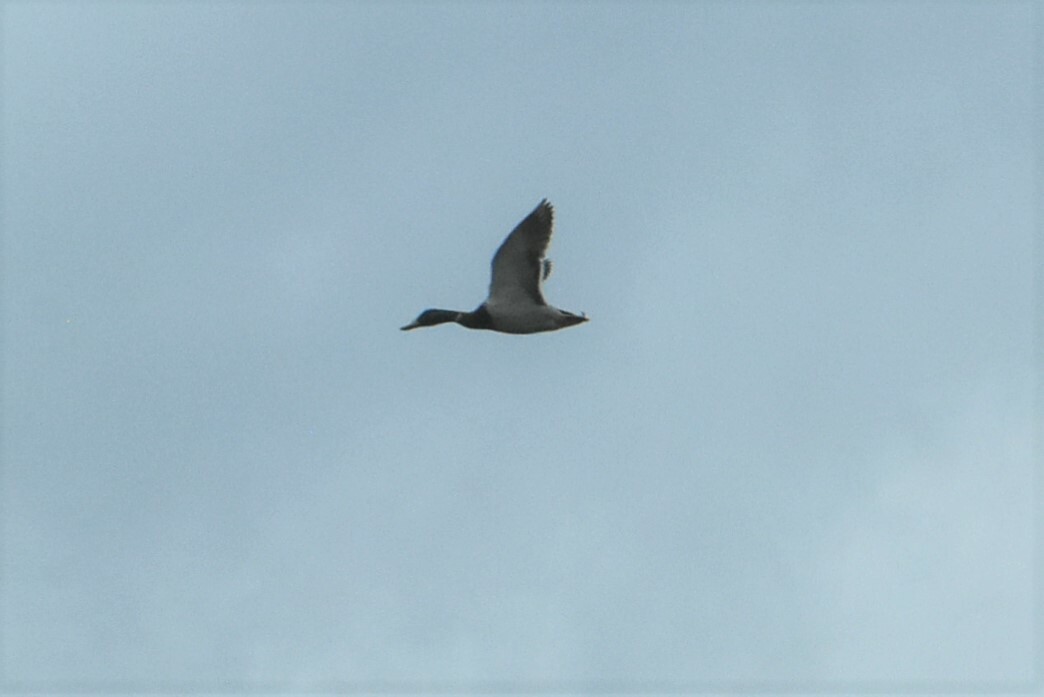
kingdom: Animalia
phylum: Chordata
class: Aves
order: Anseriformes
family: Anatidae
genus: Anas
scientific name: Anas platyrhynchos
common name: Mallard
